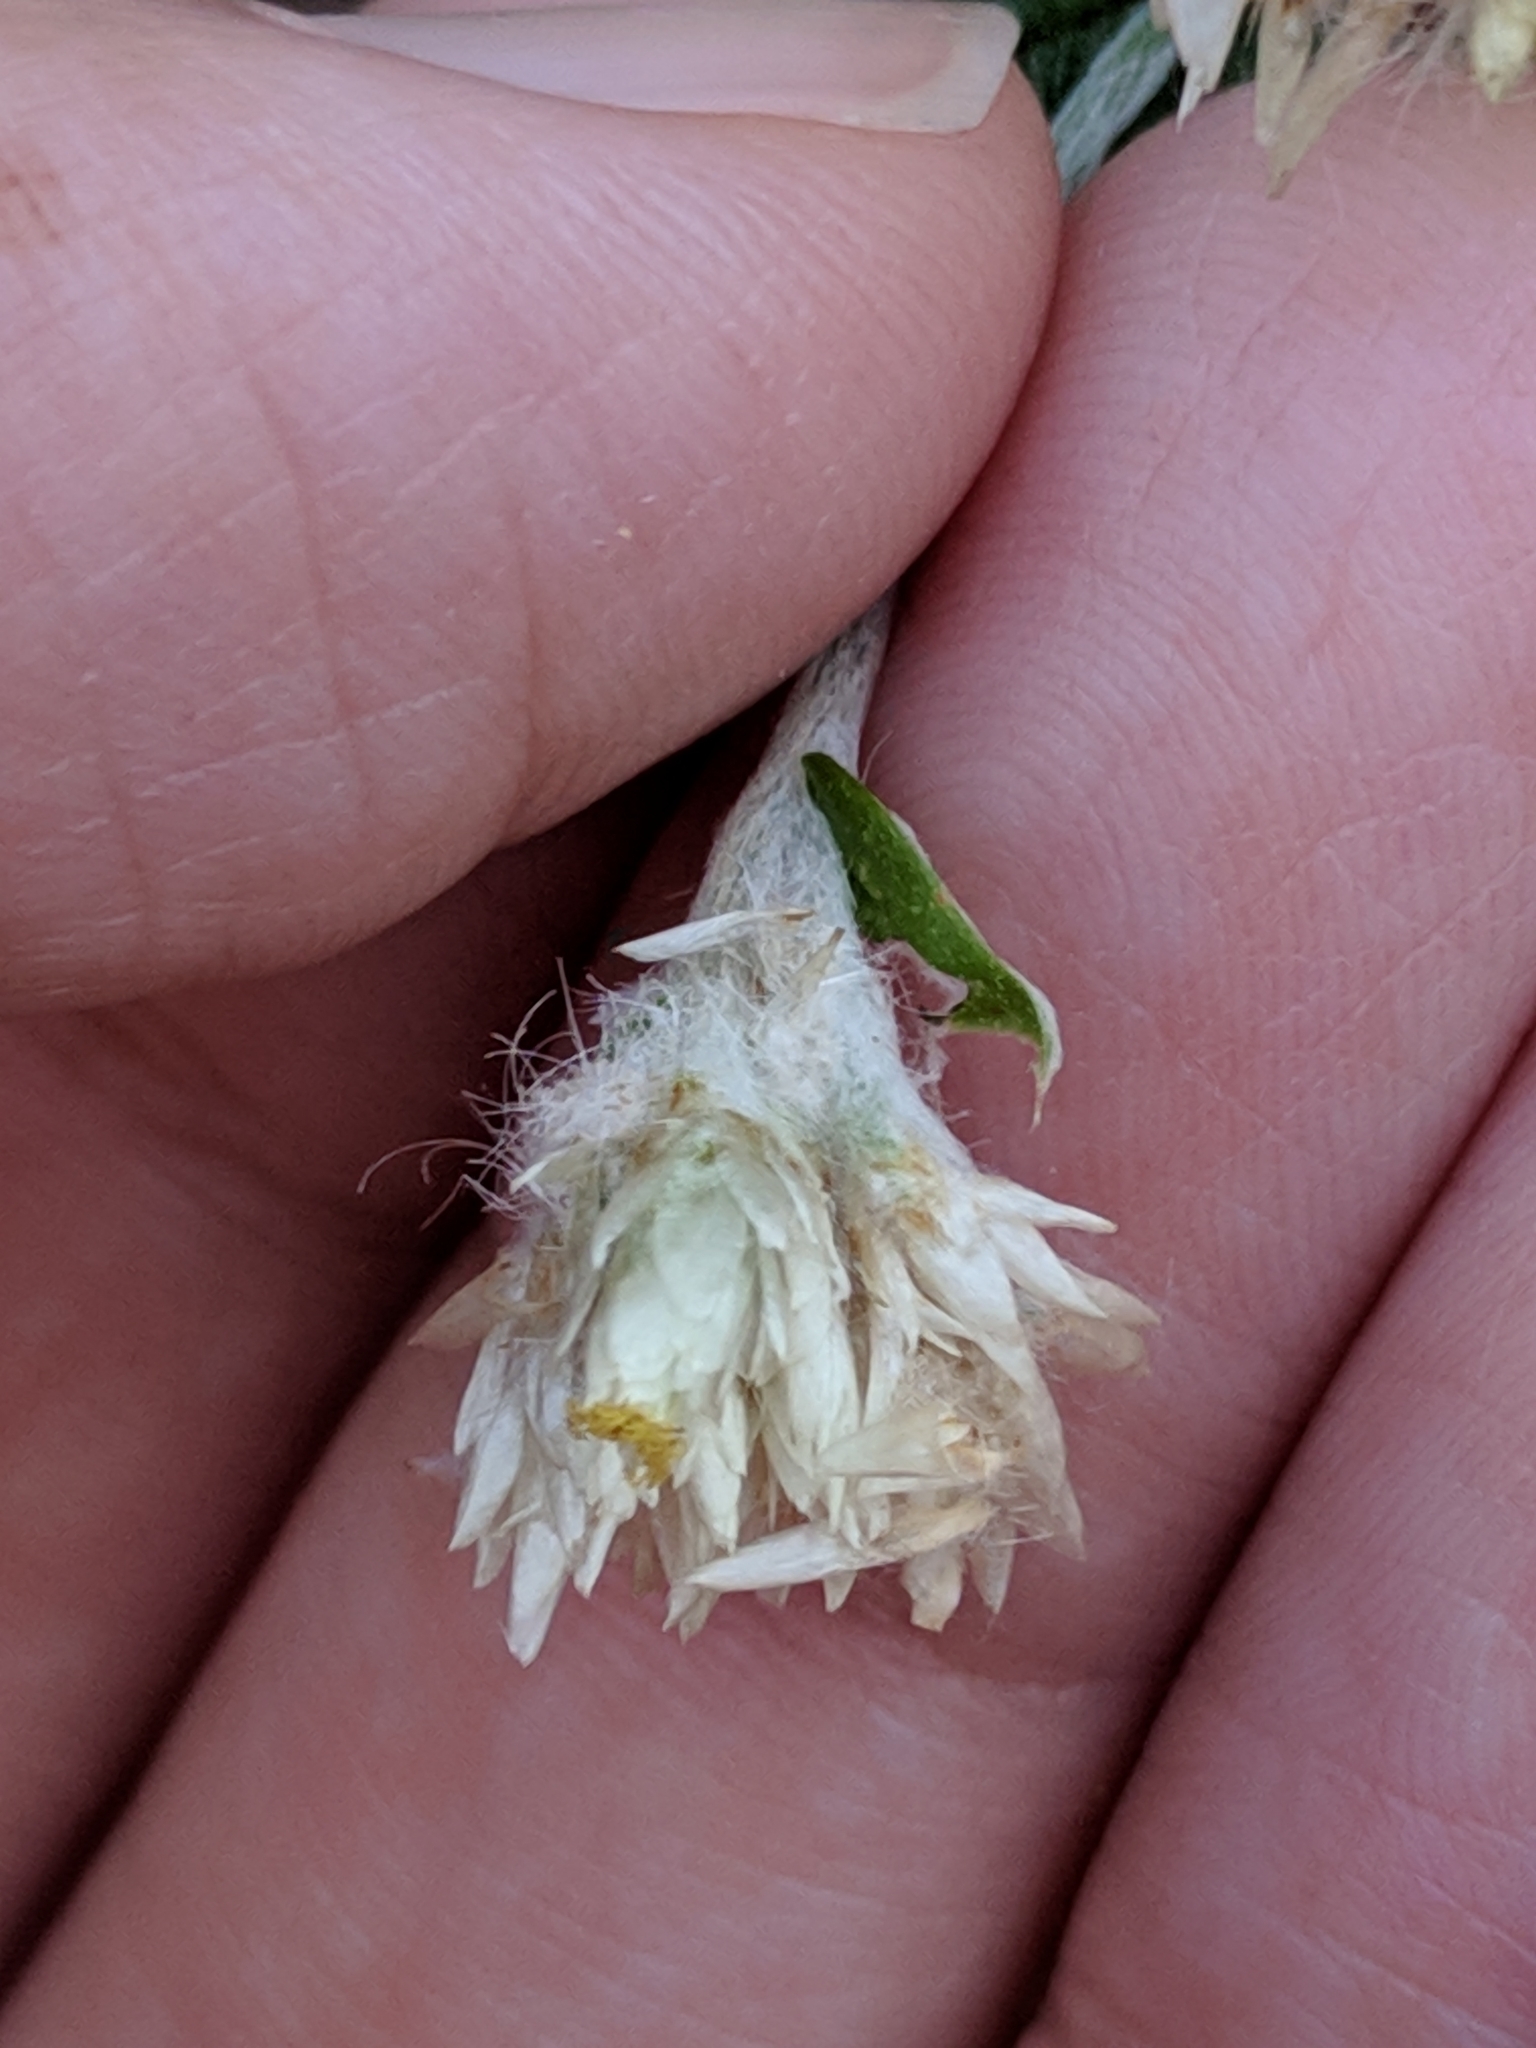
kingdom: Plantae
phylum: Tracheophyta
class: Magnoliopsida
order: Asterales
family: Asteraceae
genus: Pseudognaphalium
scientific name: Pseudognaphalium obtusifolium
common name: Eastern rabbit-tobacco
